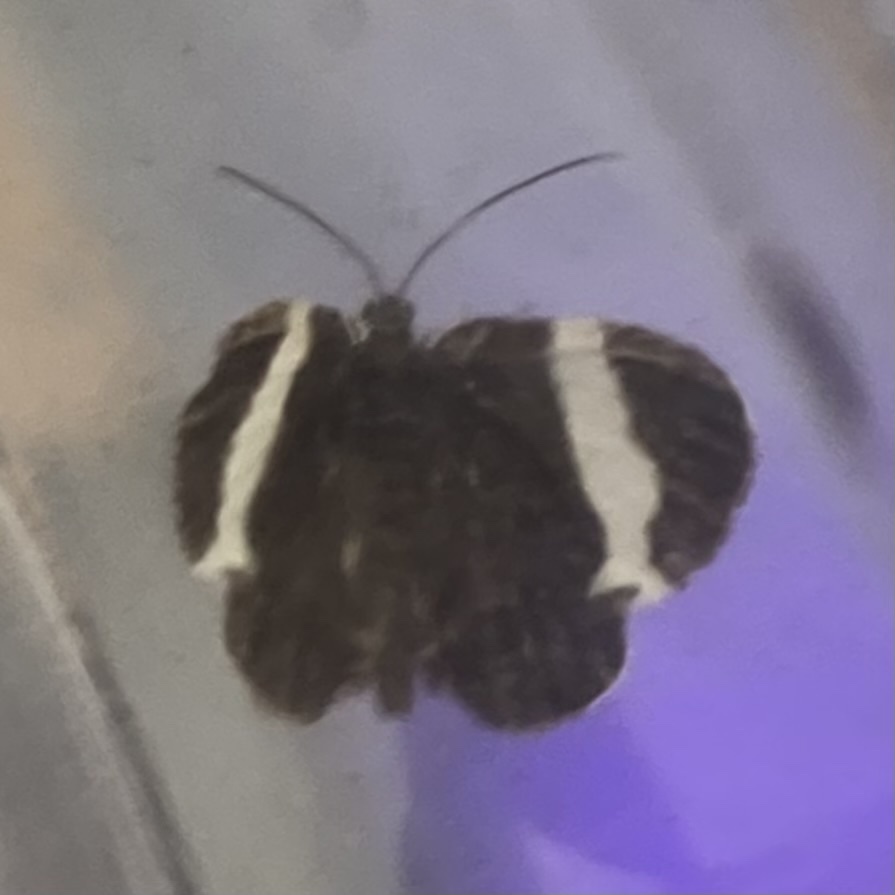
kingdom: Animalia
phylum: Arthropoda
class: Insecta
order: Lepidoptera
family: Geometridae
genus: Trichodezia
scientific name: Trichodezia albovittata
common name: White striped black
